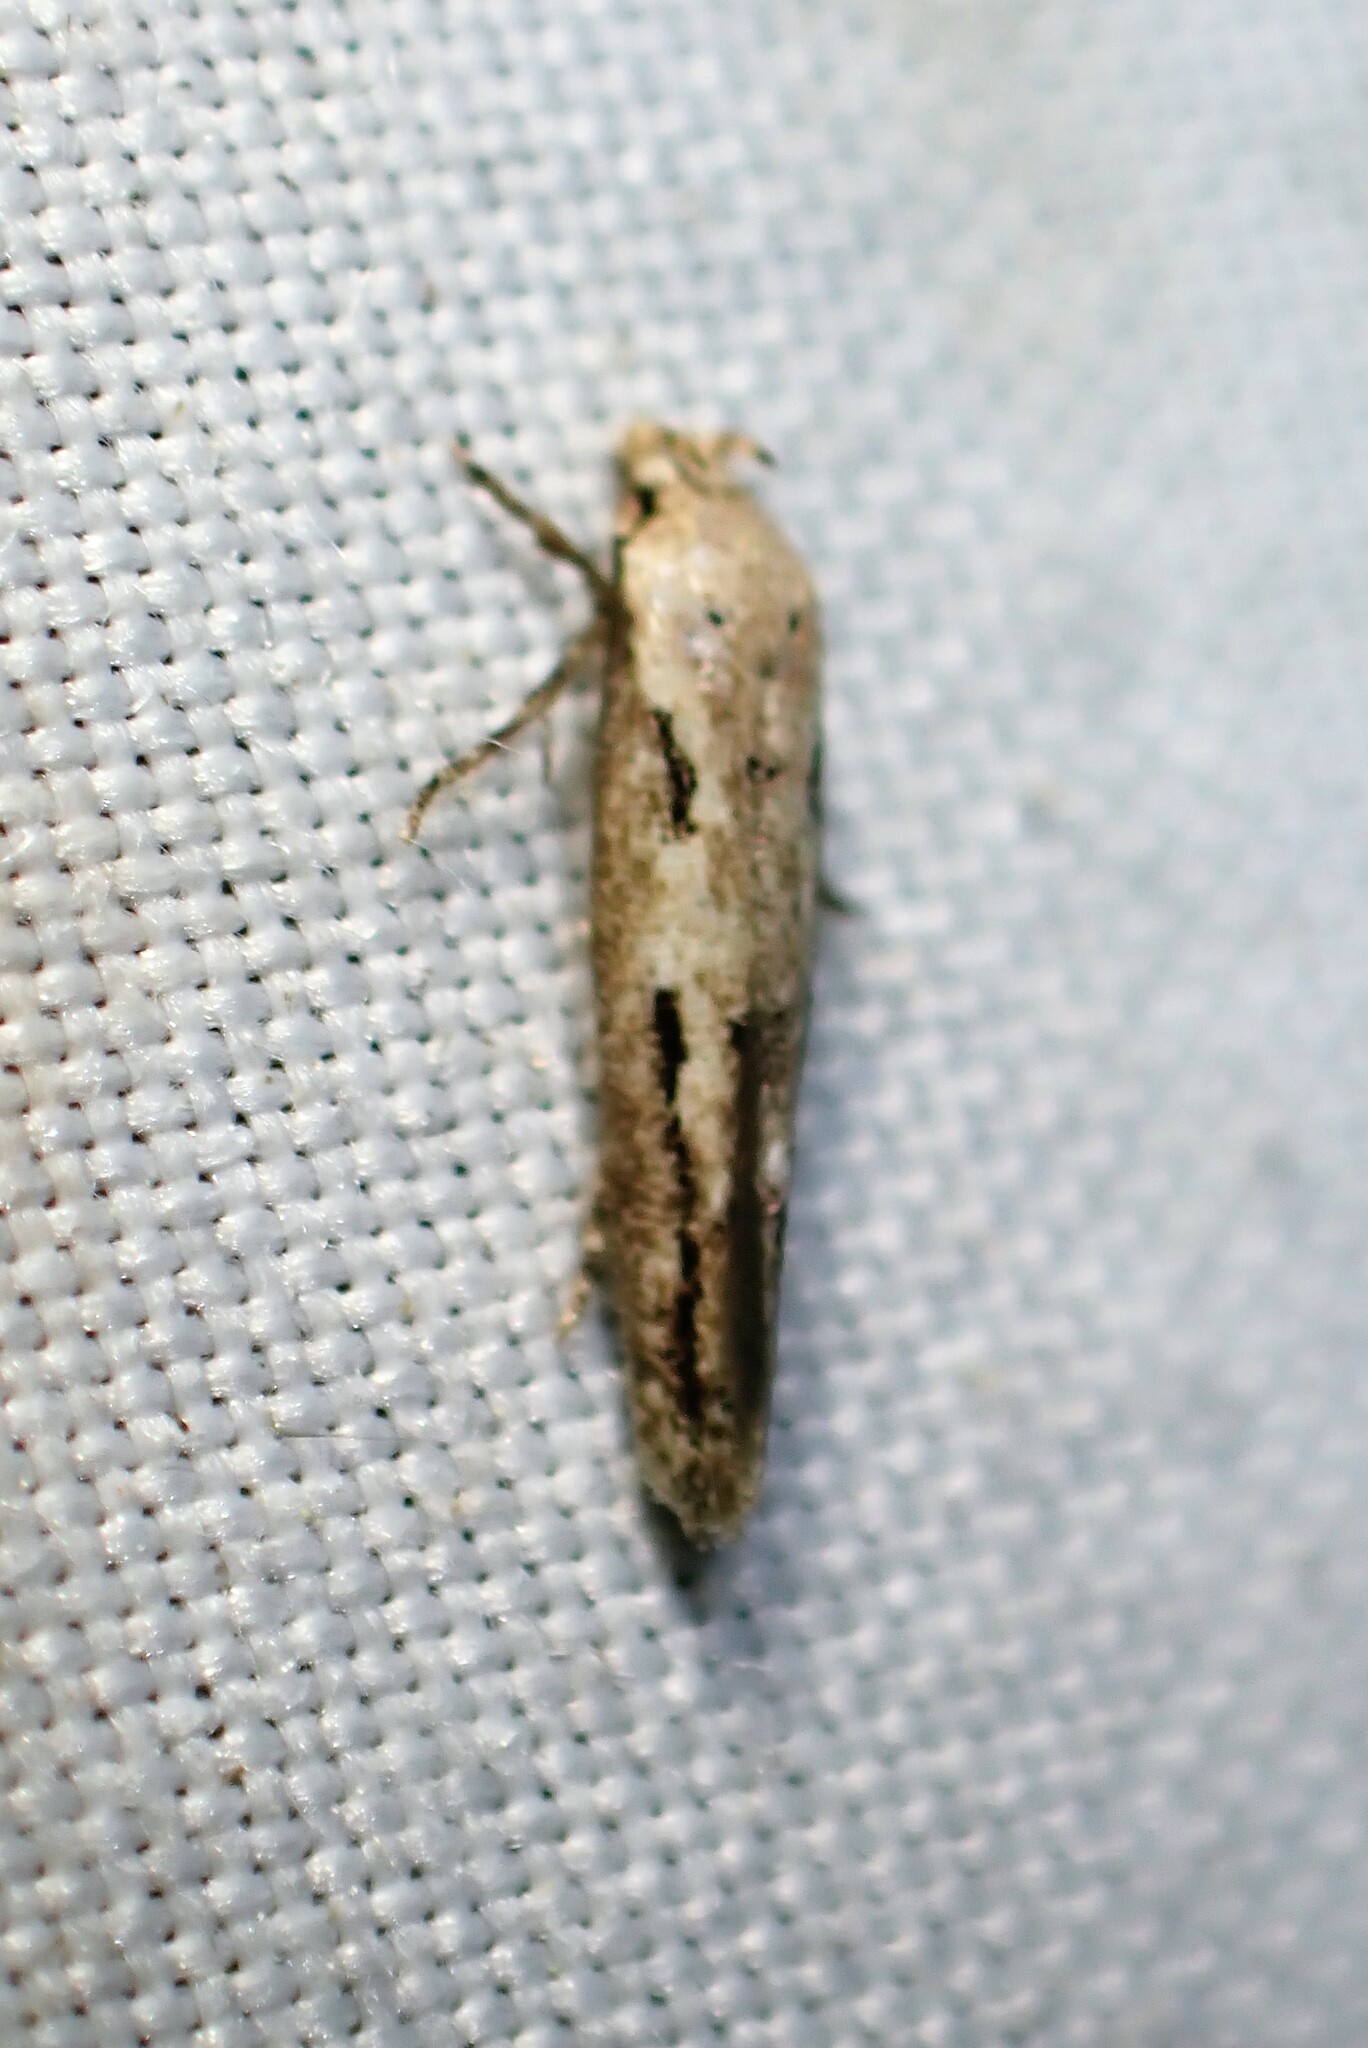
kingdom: Animalia
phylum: Arthropoda
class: Insecta
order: Lepidoptera
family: Momphidae
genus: Mompha
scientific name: Mompha brevivittella
